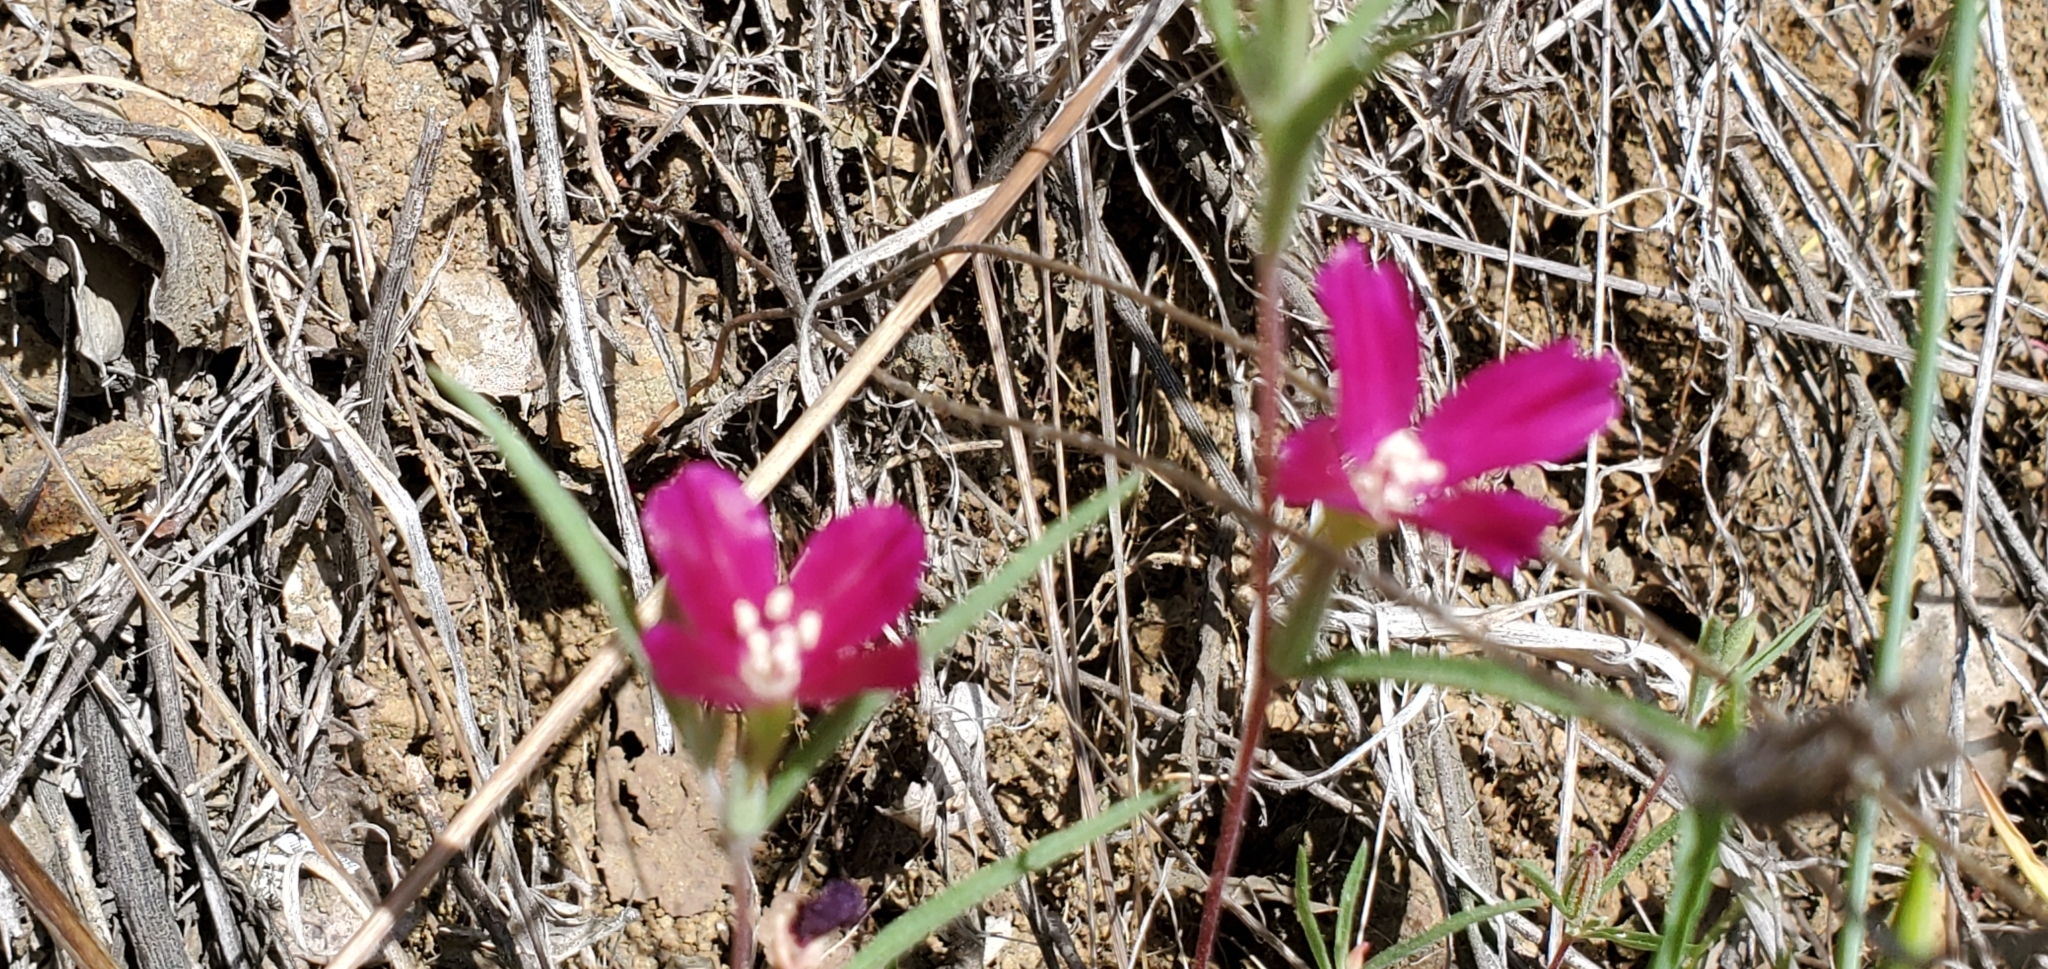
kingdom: Plantae
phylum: Tracheophyta
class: Magnoliopsida
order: Myrtales
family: Onagraceae
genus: Clarkia
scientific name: Clarkia purpurea
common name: Purple clarkia
